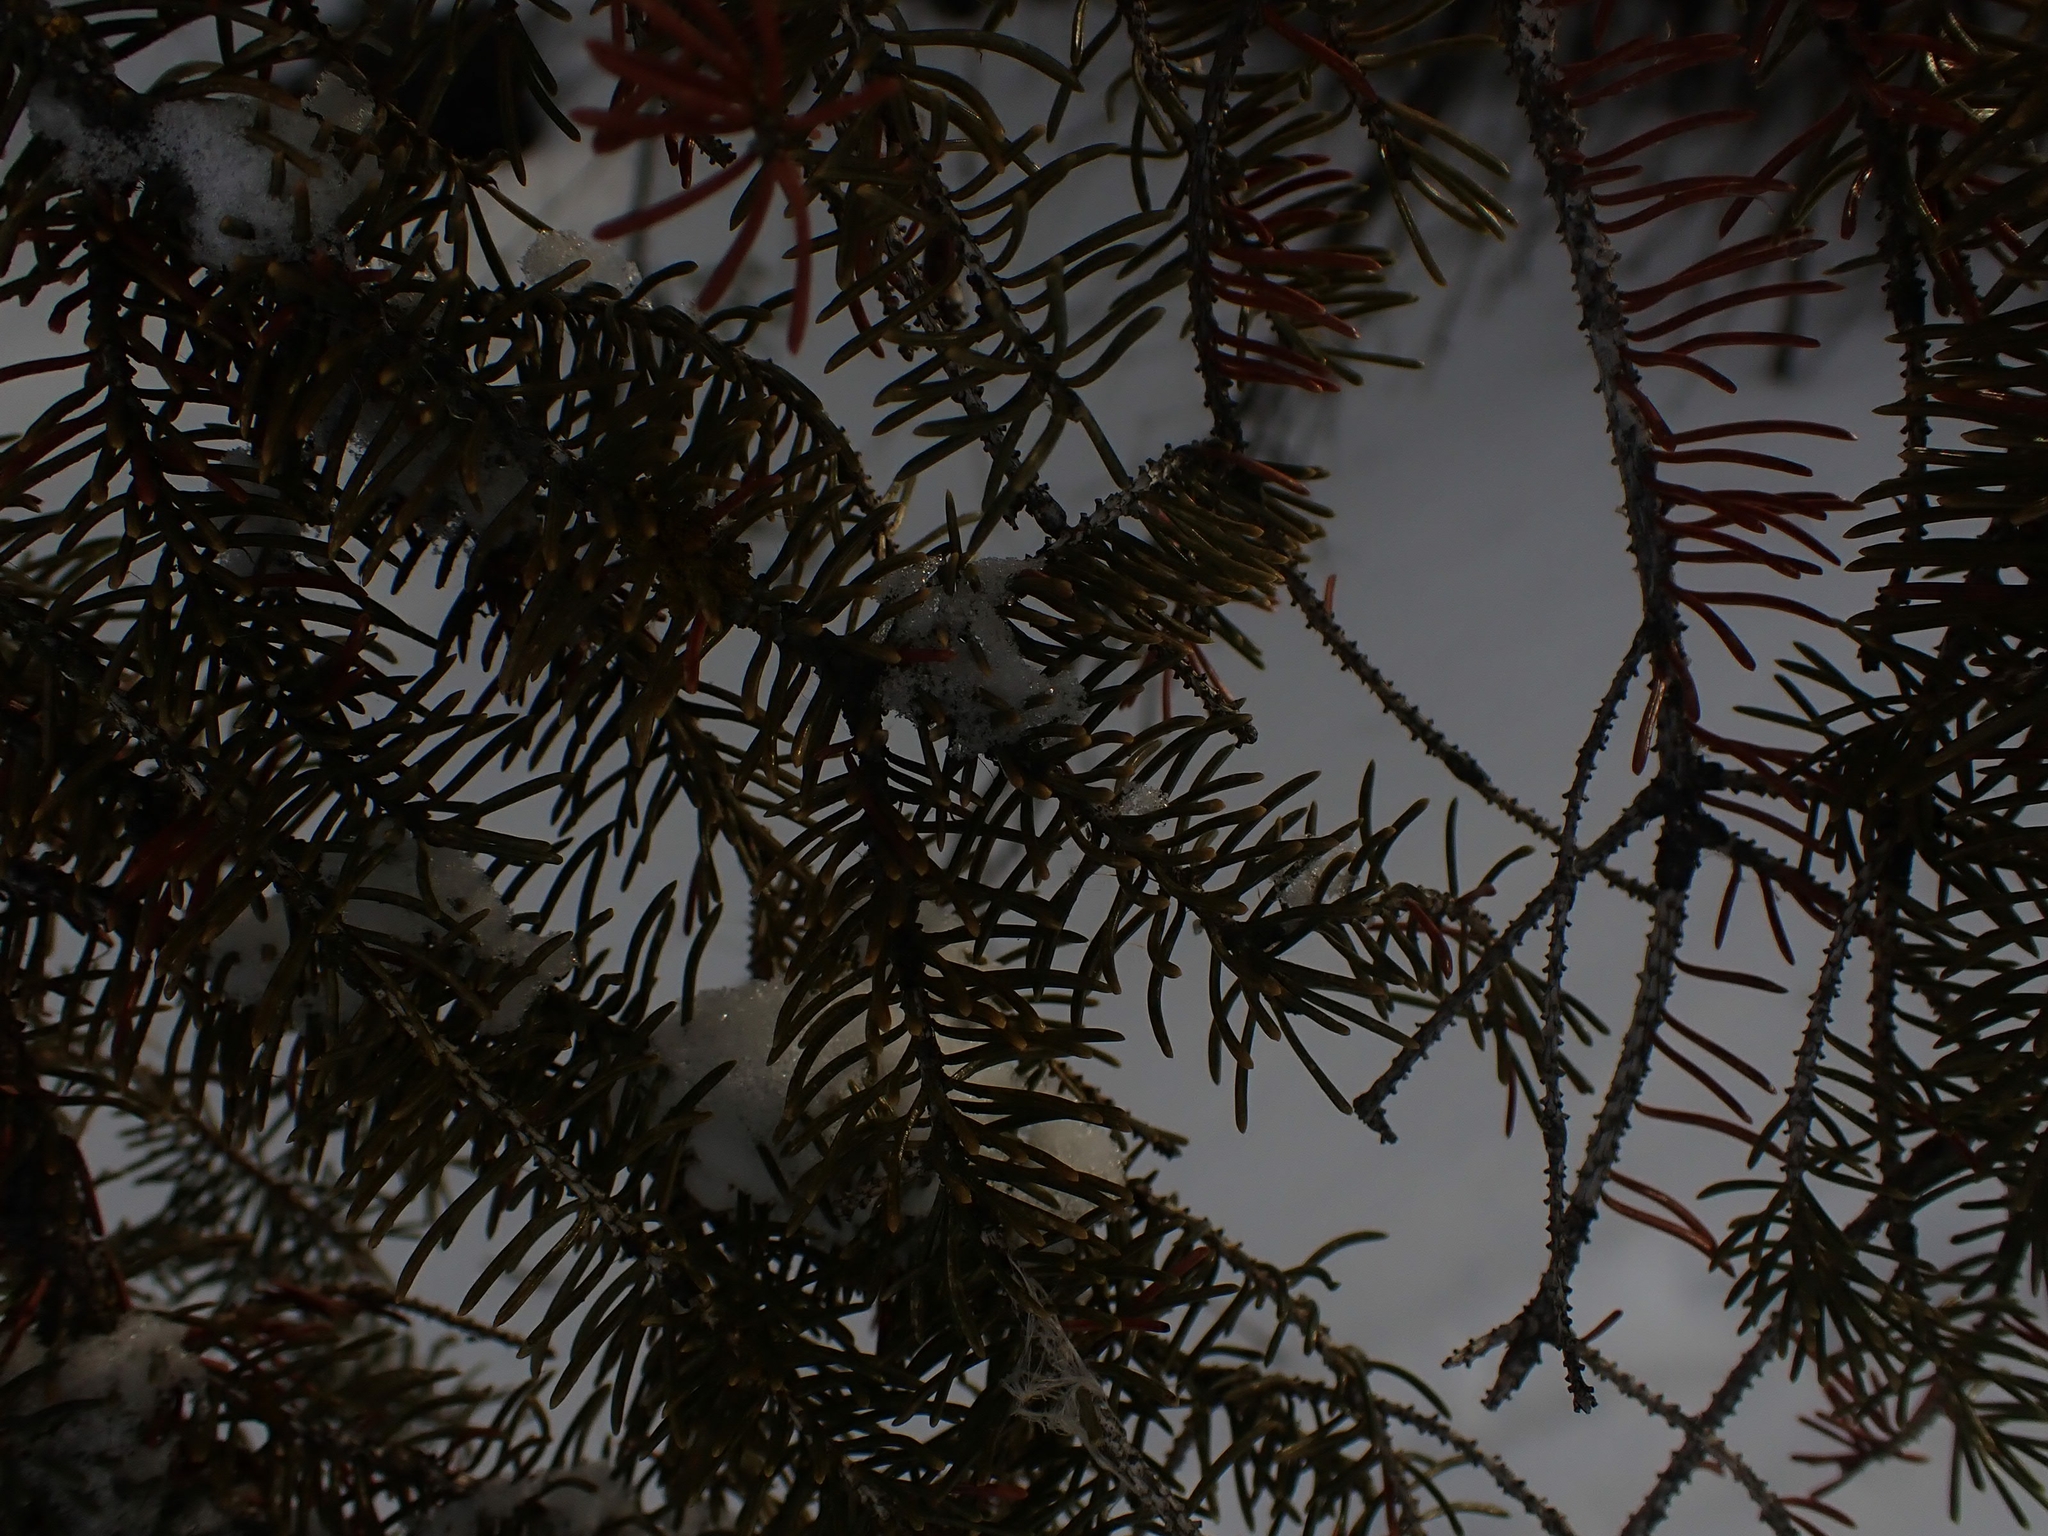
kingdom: Plantae
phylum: Tracheophyta
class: Pinopsida
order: Pinales
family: Pinaceae
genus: Picea
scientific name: Picea glauca
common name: White spruce
